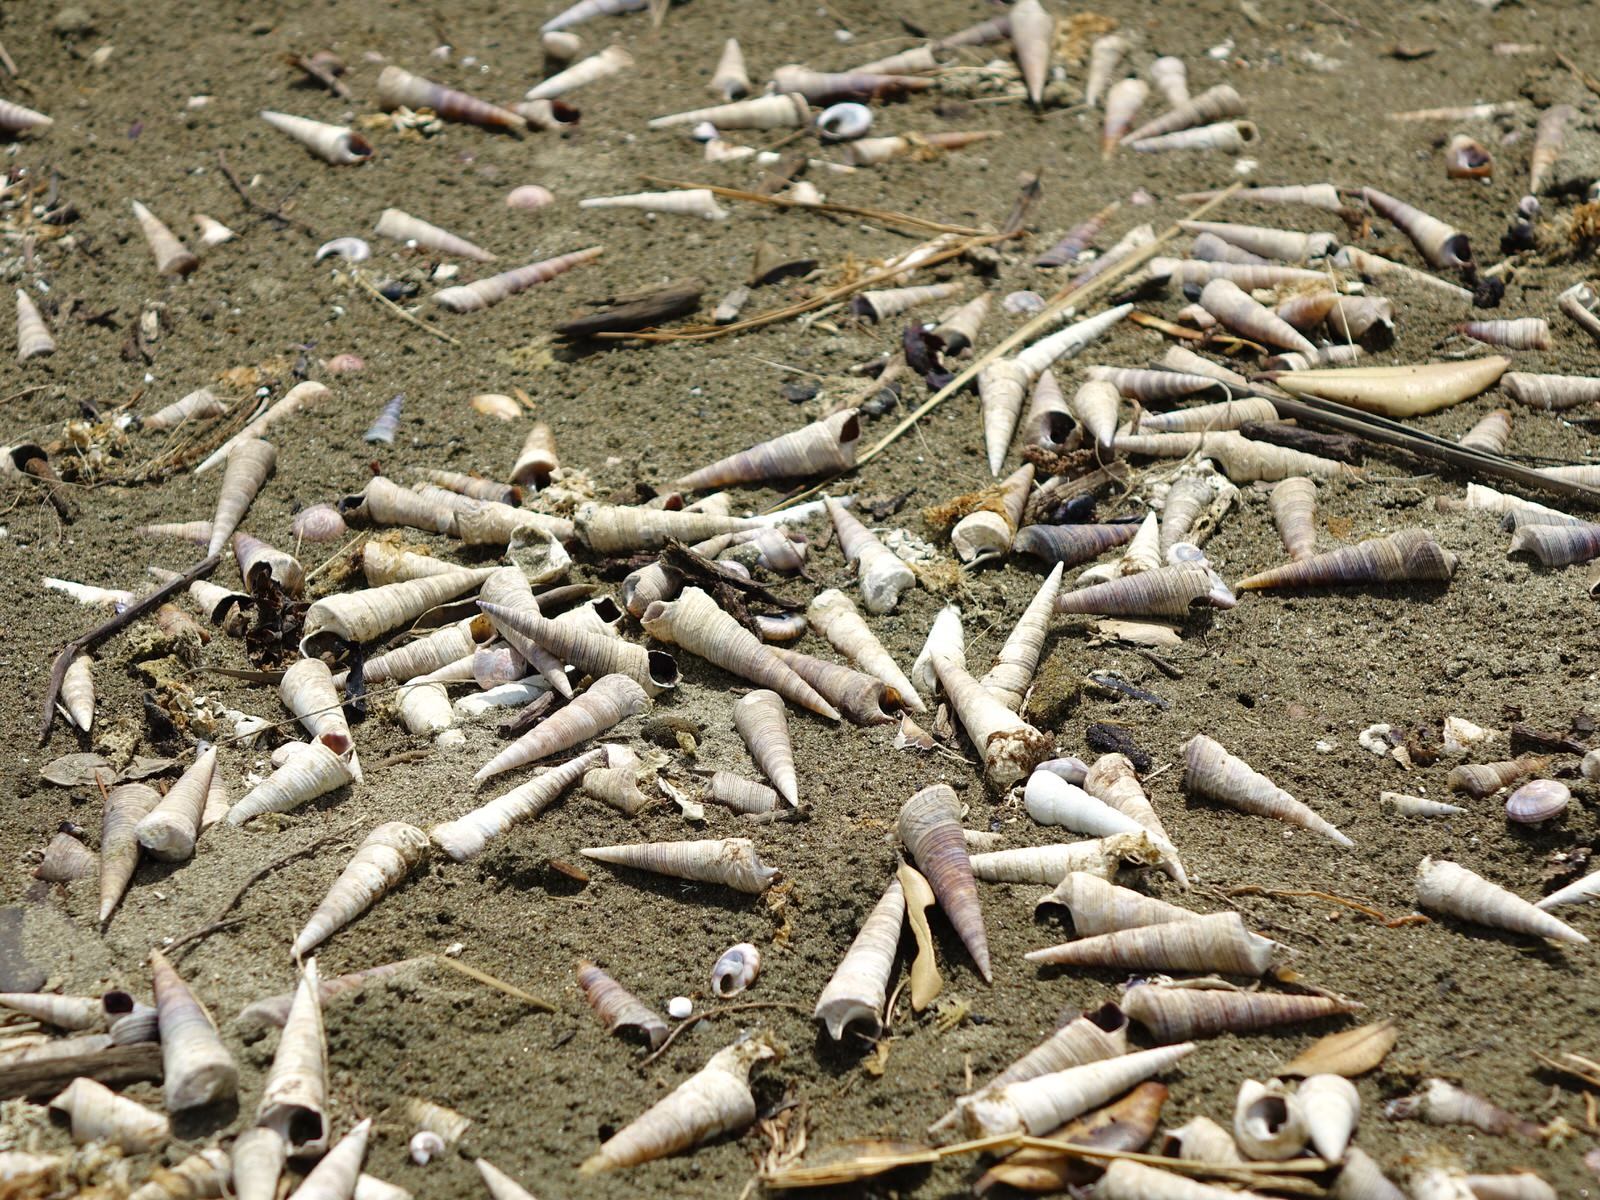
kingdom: Animalia
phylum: Mollusca
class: Gastropoda
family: Turritellidae
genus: Maoricolpus
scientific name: Maoricolpus roseus
